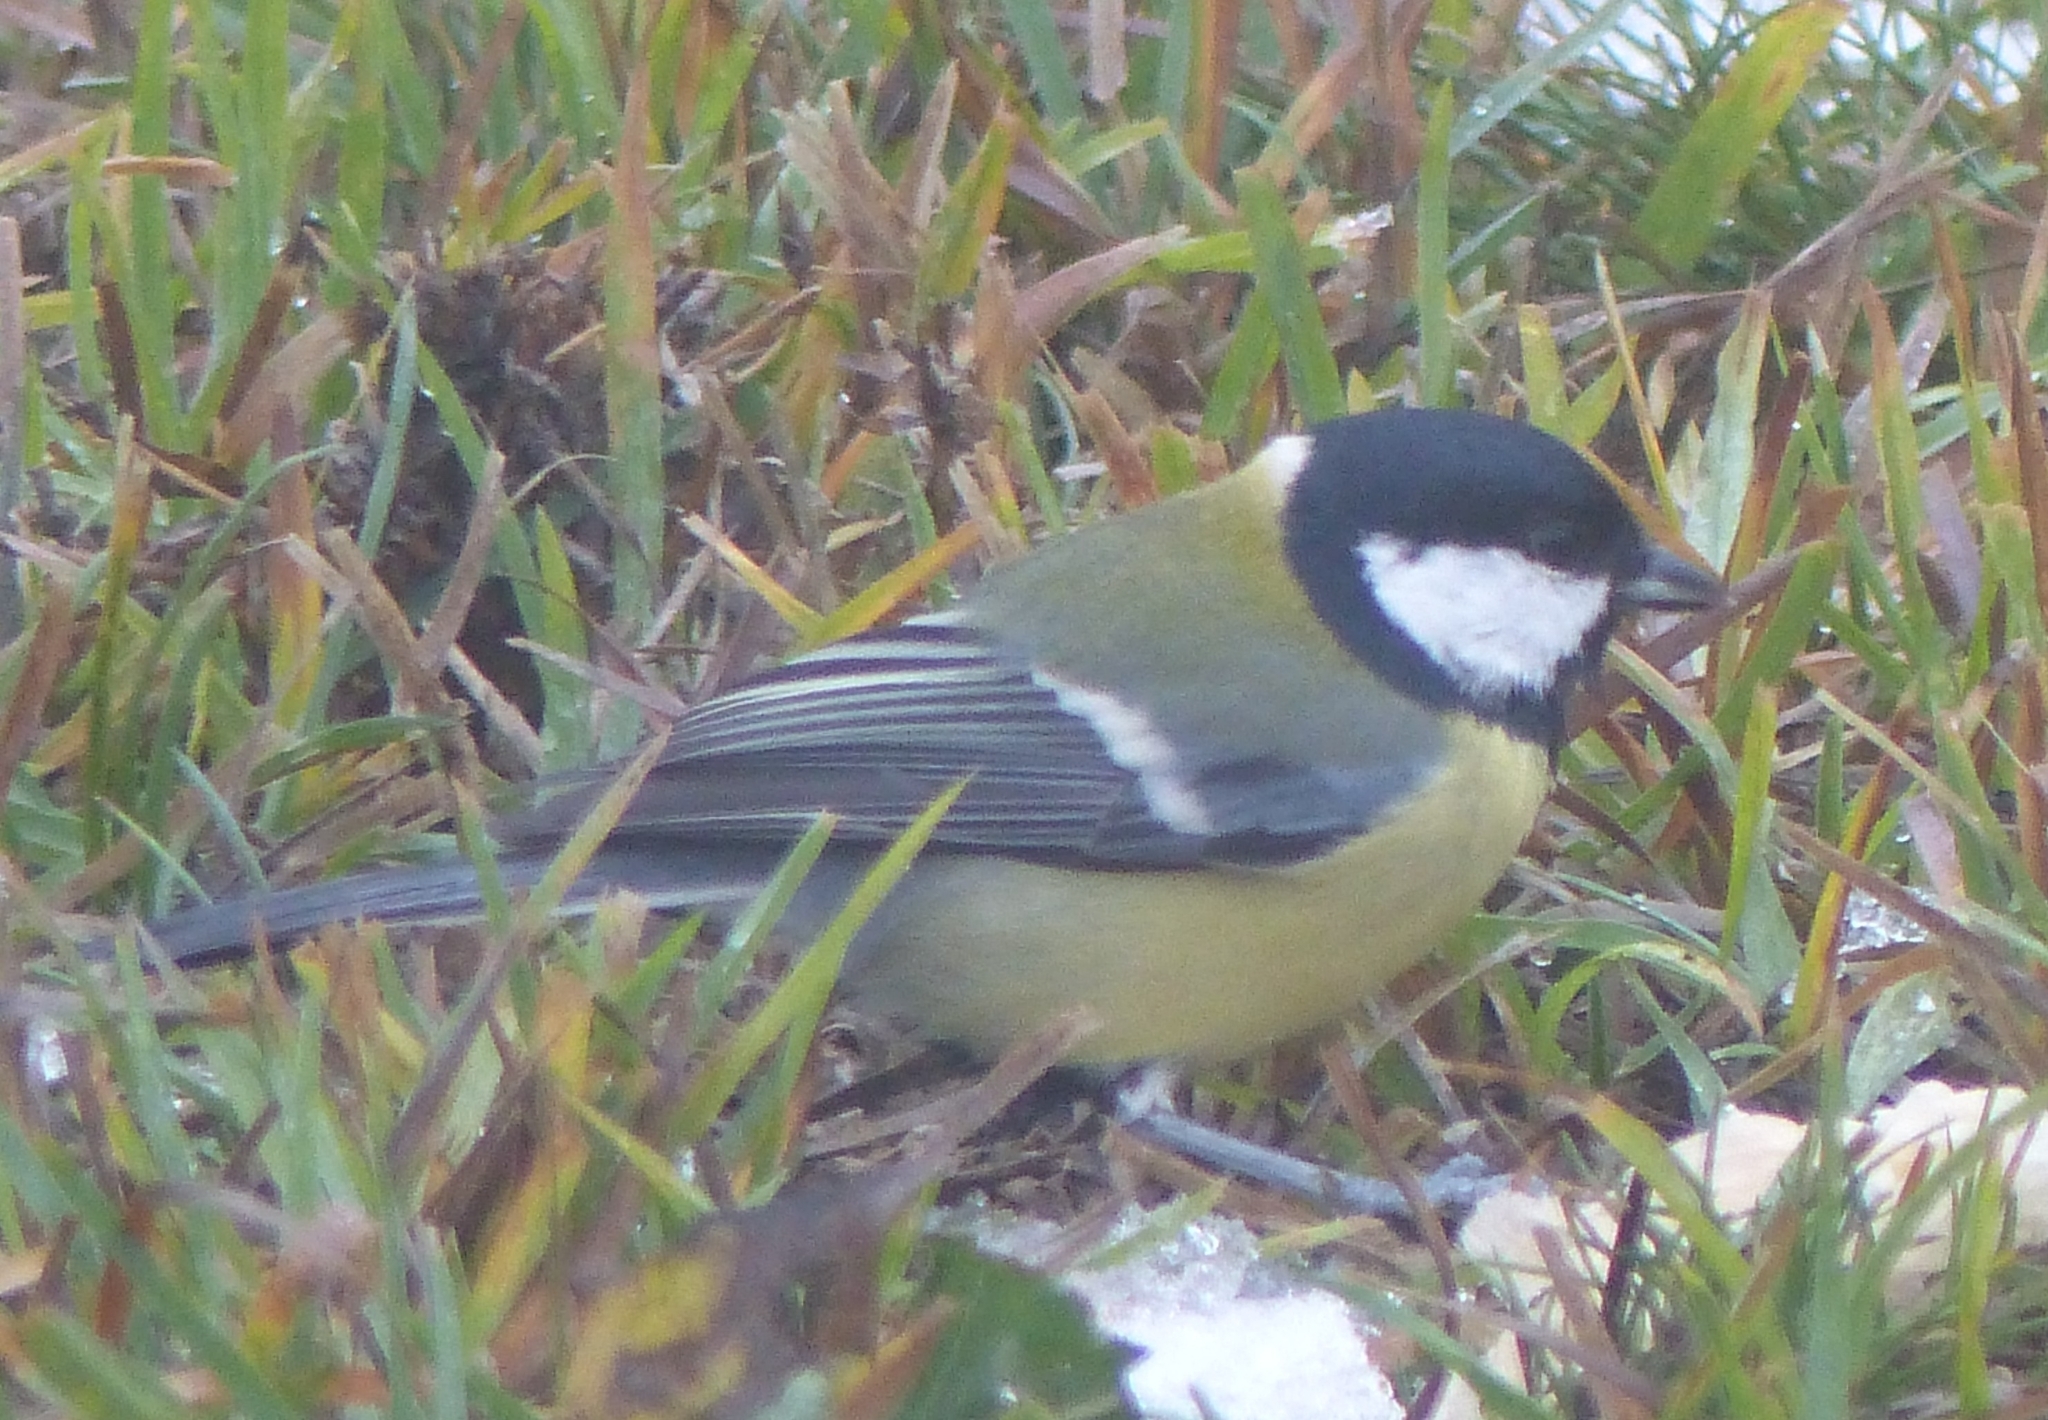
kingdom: Animalia
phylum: Chordata
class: Aves
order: Passeriformes
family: Paridae
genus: Parus
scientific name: Parus major
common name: Great tit
